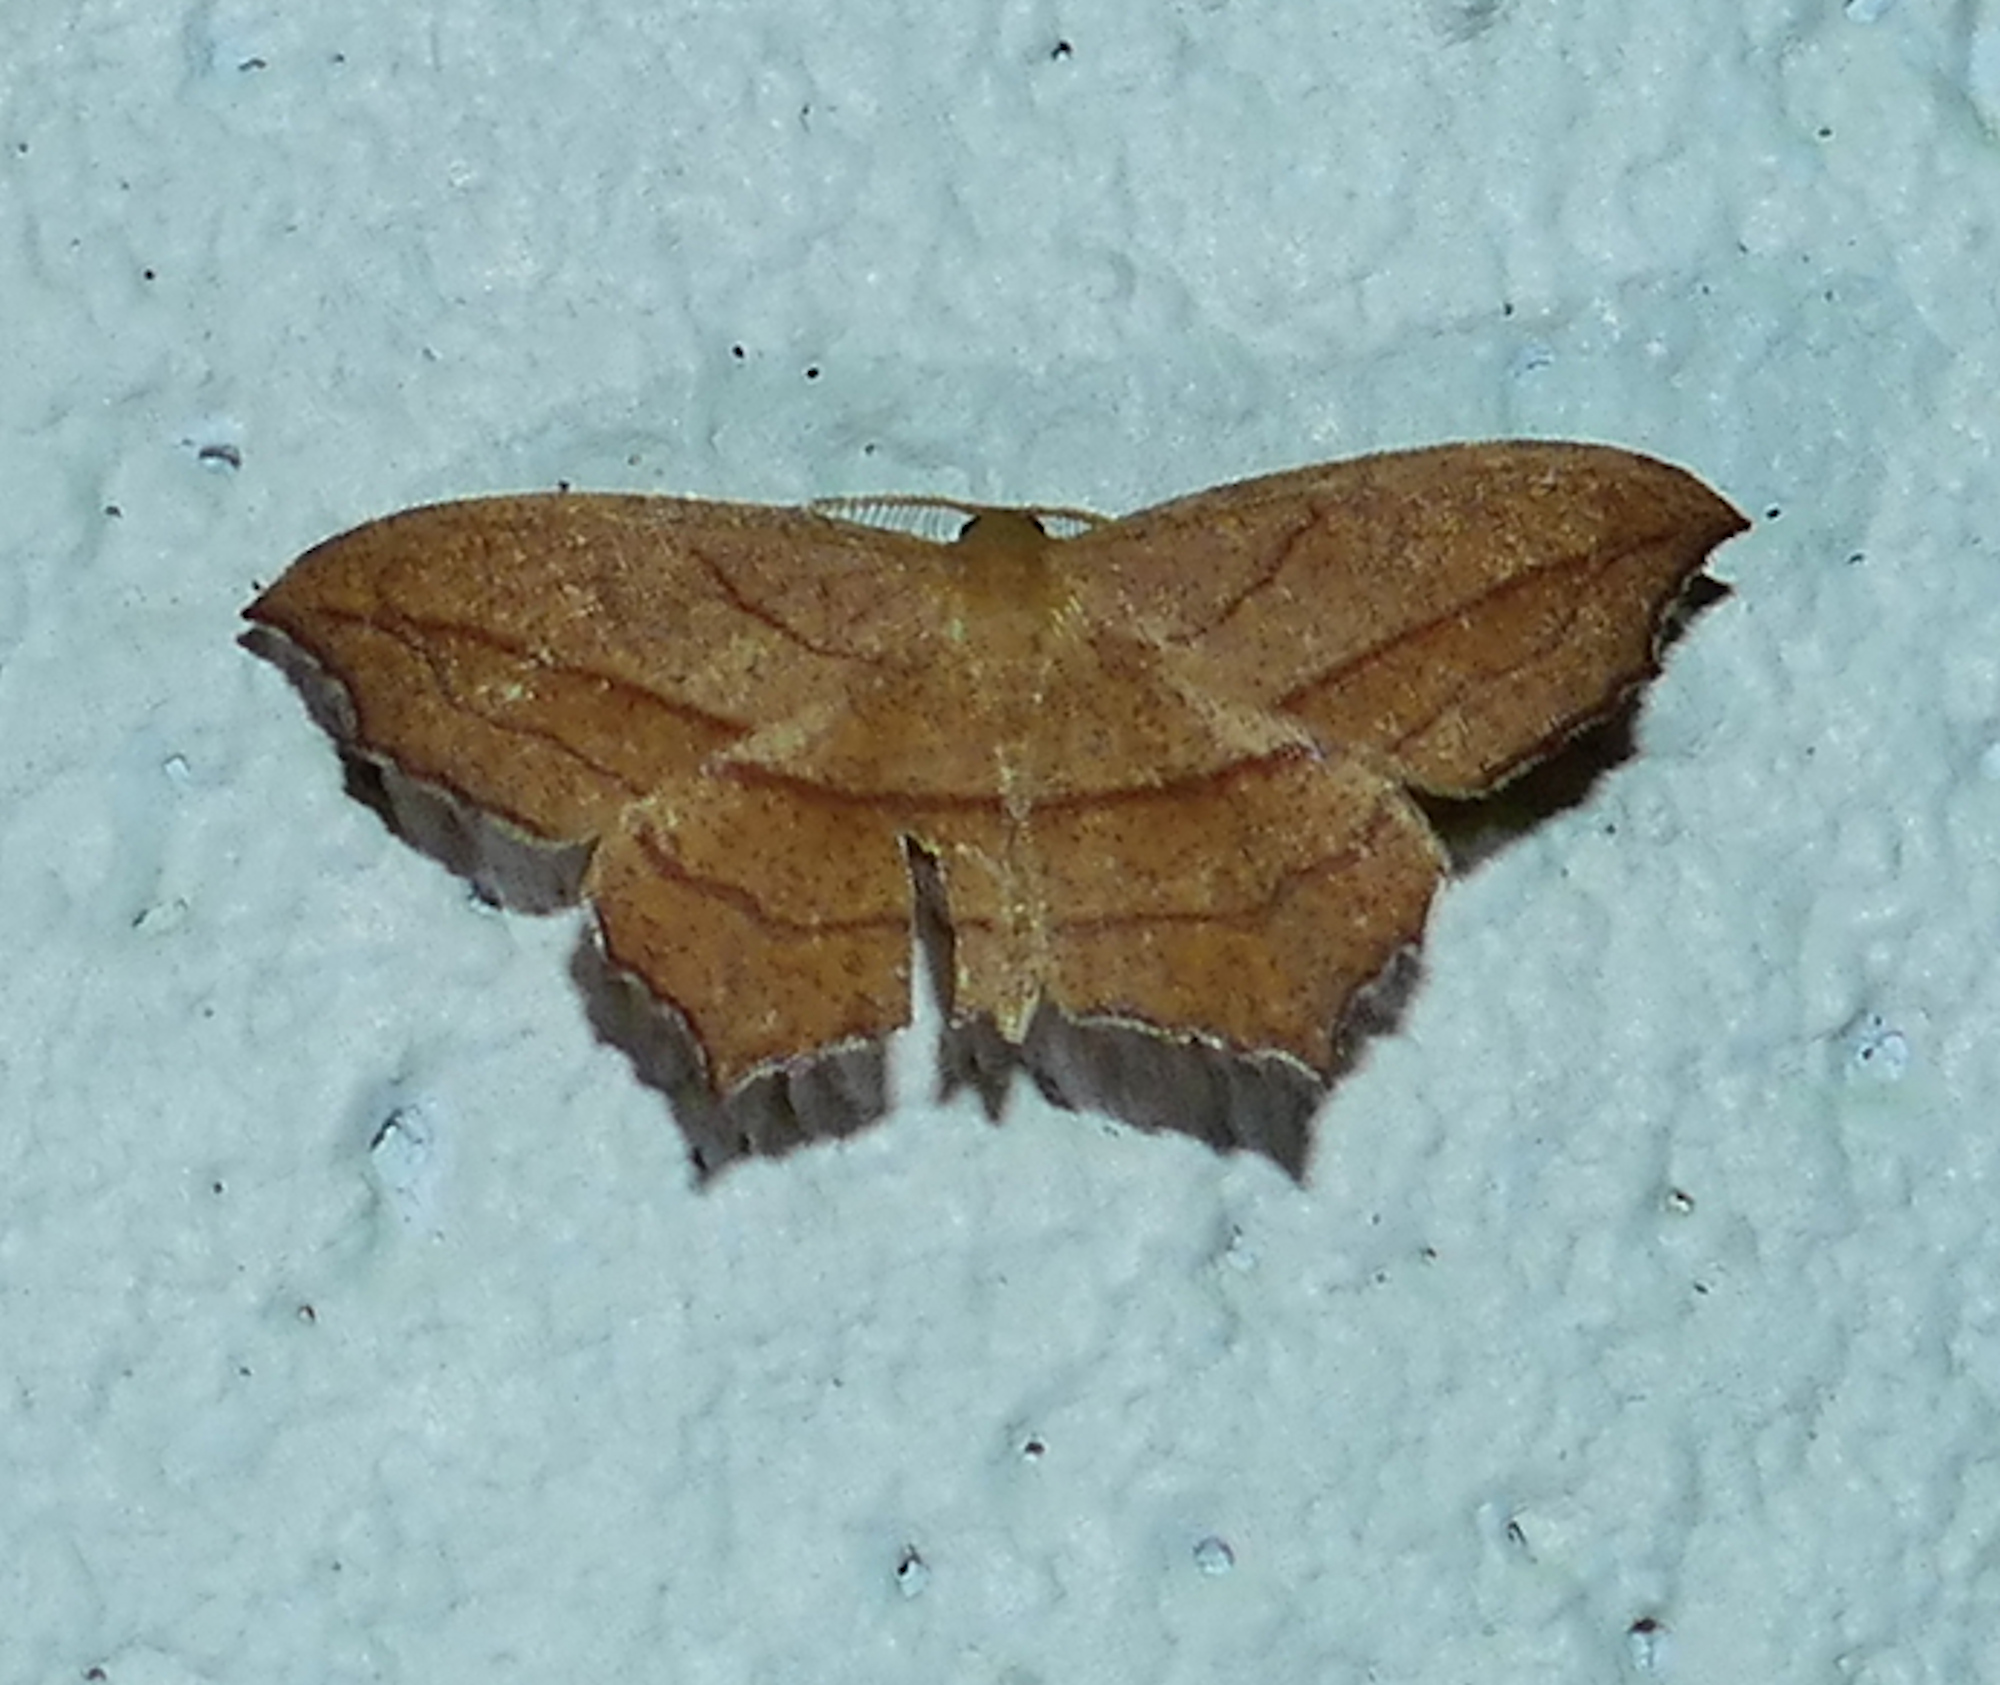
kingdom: Animalia
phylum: Arthropoda
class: Insecta
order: Lepidoptera
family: Geometridae
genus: Timandra
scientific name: Timandra amaturaria
